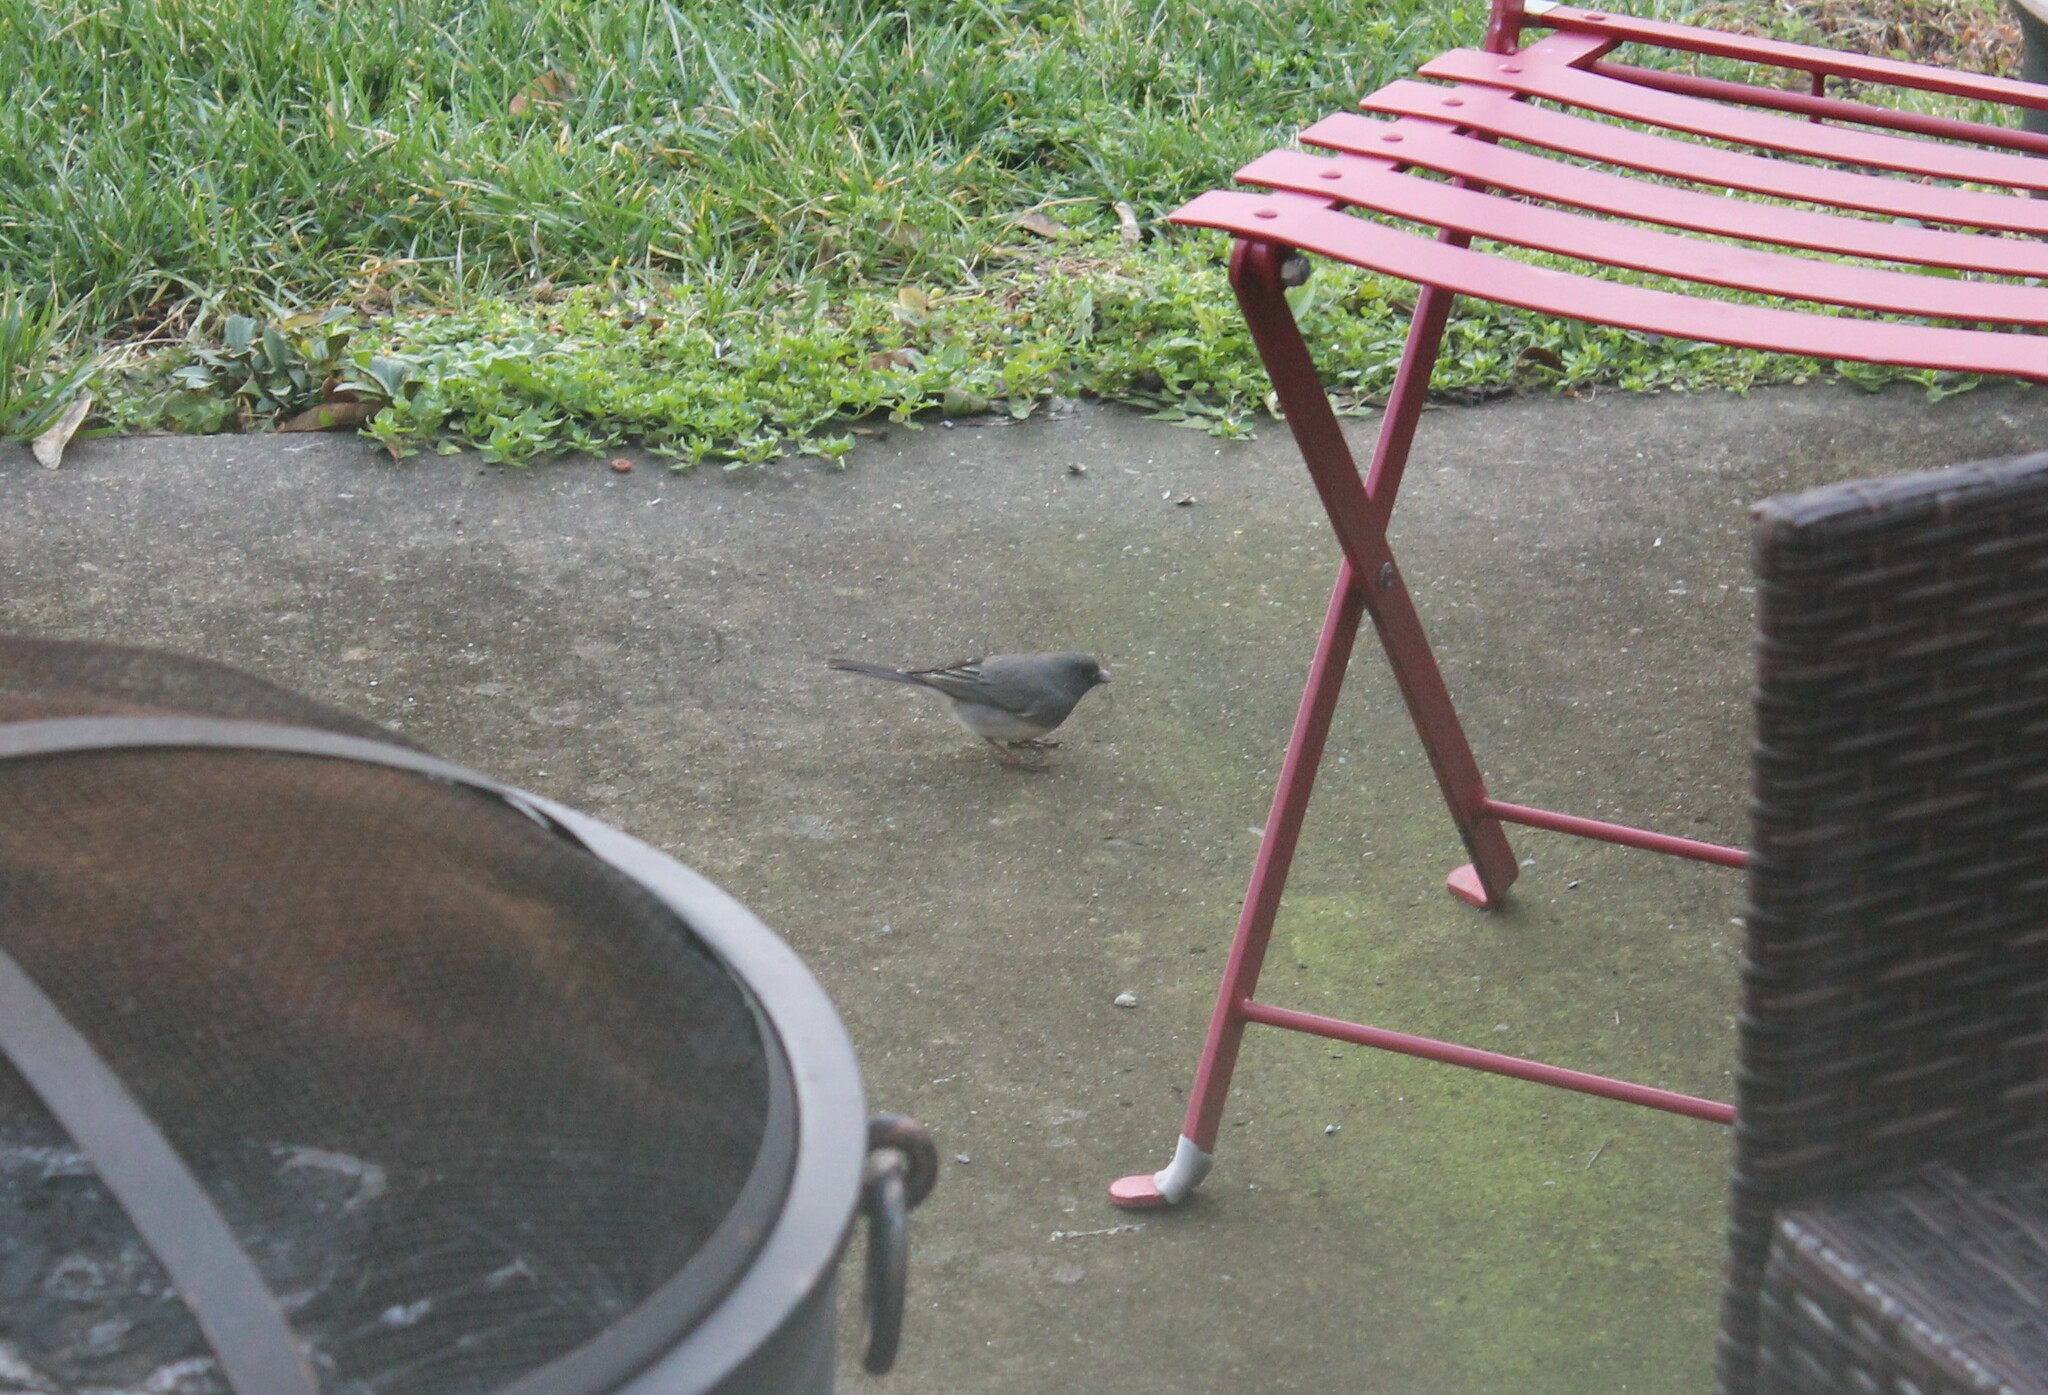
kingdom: Animalia
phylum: Chordata
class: Aves
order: Passeriformes
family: Passerellidae
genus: Junco
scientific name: Junco hyemalis
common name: Dark-eyed junco
